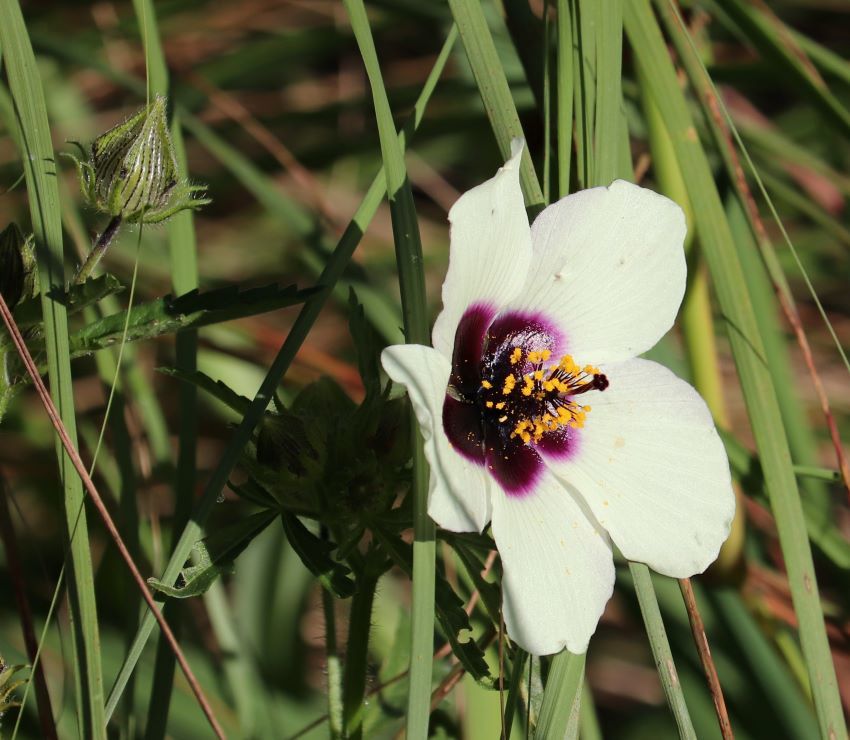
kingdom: Plantae
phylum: Tracheophyta
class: Magnoliopsida
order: Malvales
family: Malvaceae
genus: Hibiscus
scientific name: Hibiscus trionum
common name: Bladder ketmia
